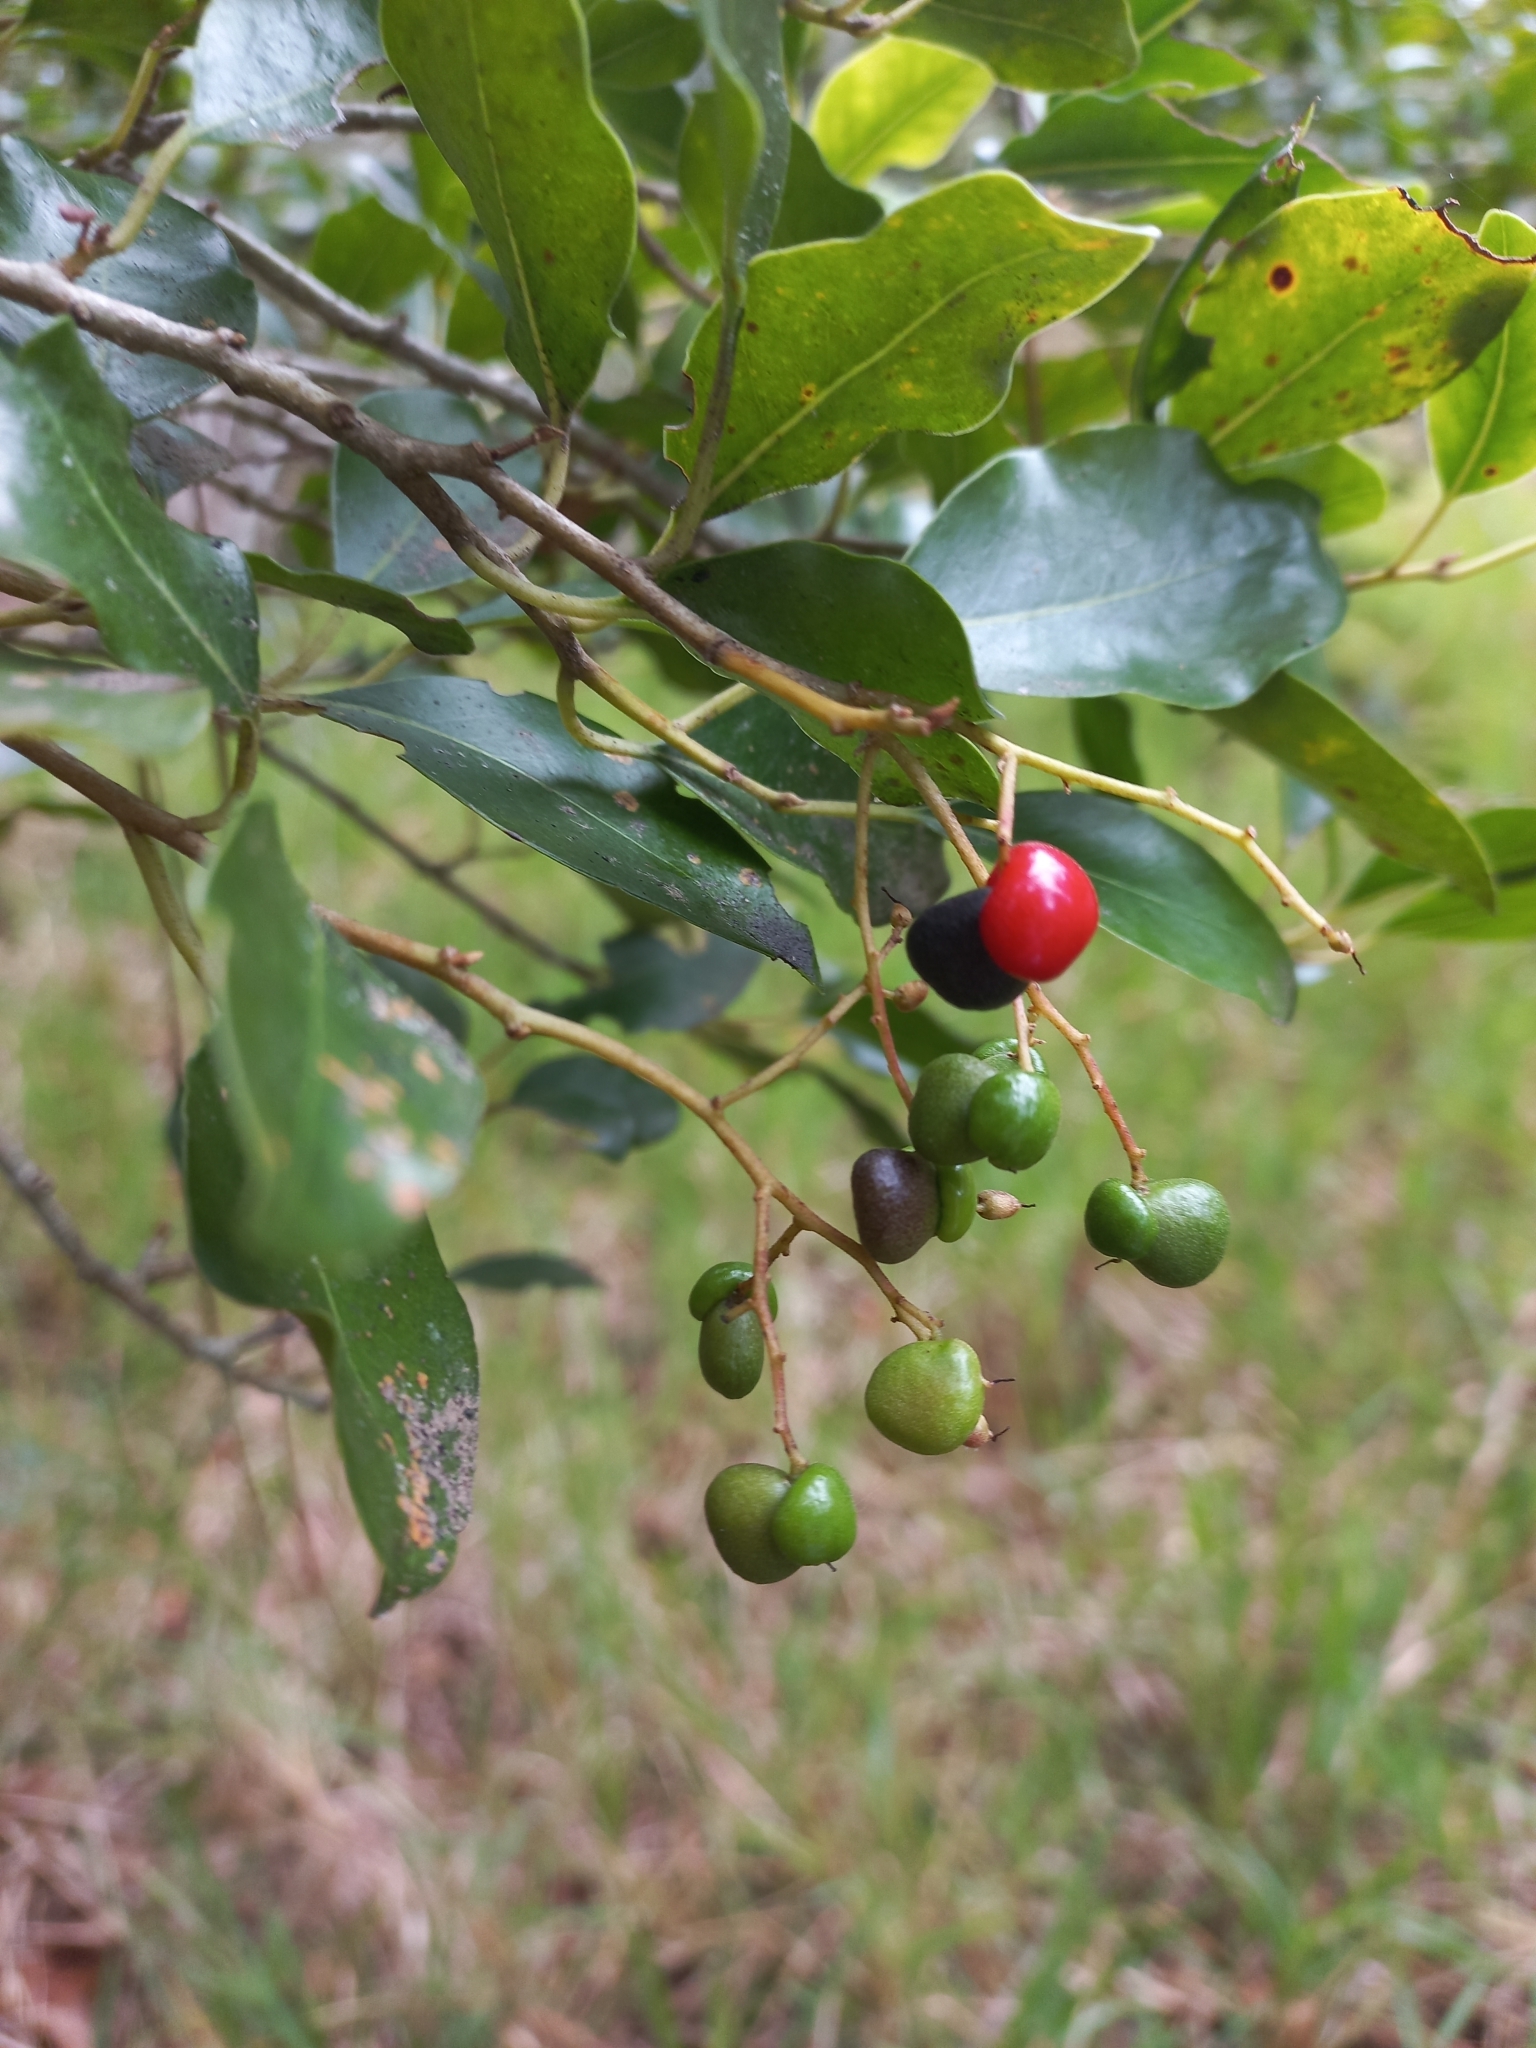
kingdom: Plantae
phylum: Tracheophyta
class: Magnoliopsida
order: Metteniusales
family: Metteniusaceae
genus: Apodytes
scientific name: Apodytes dimidiata
